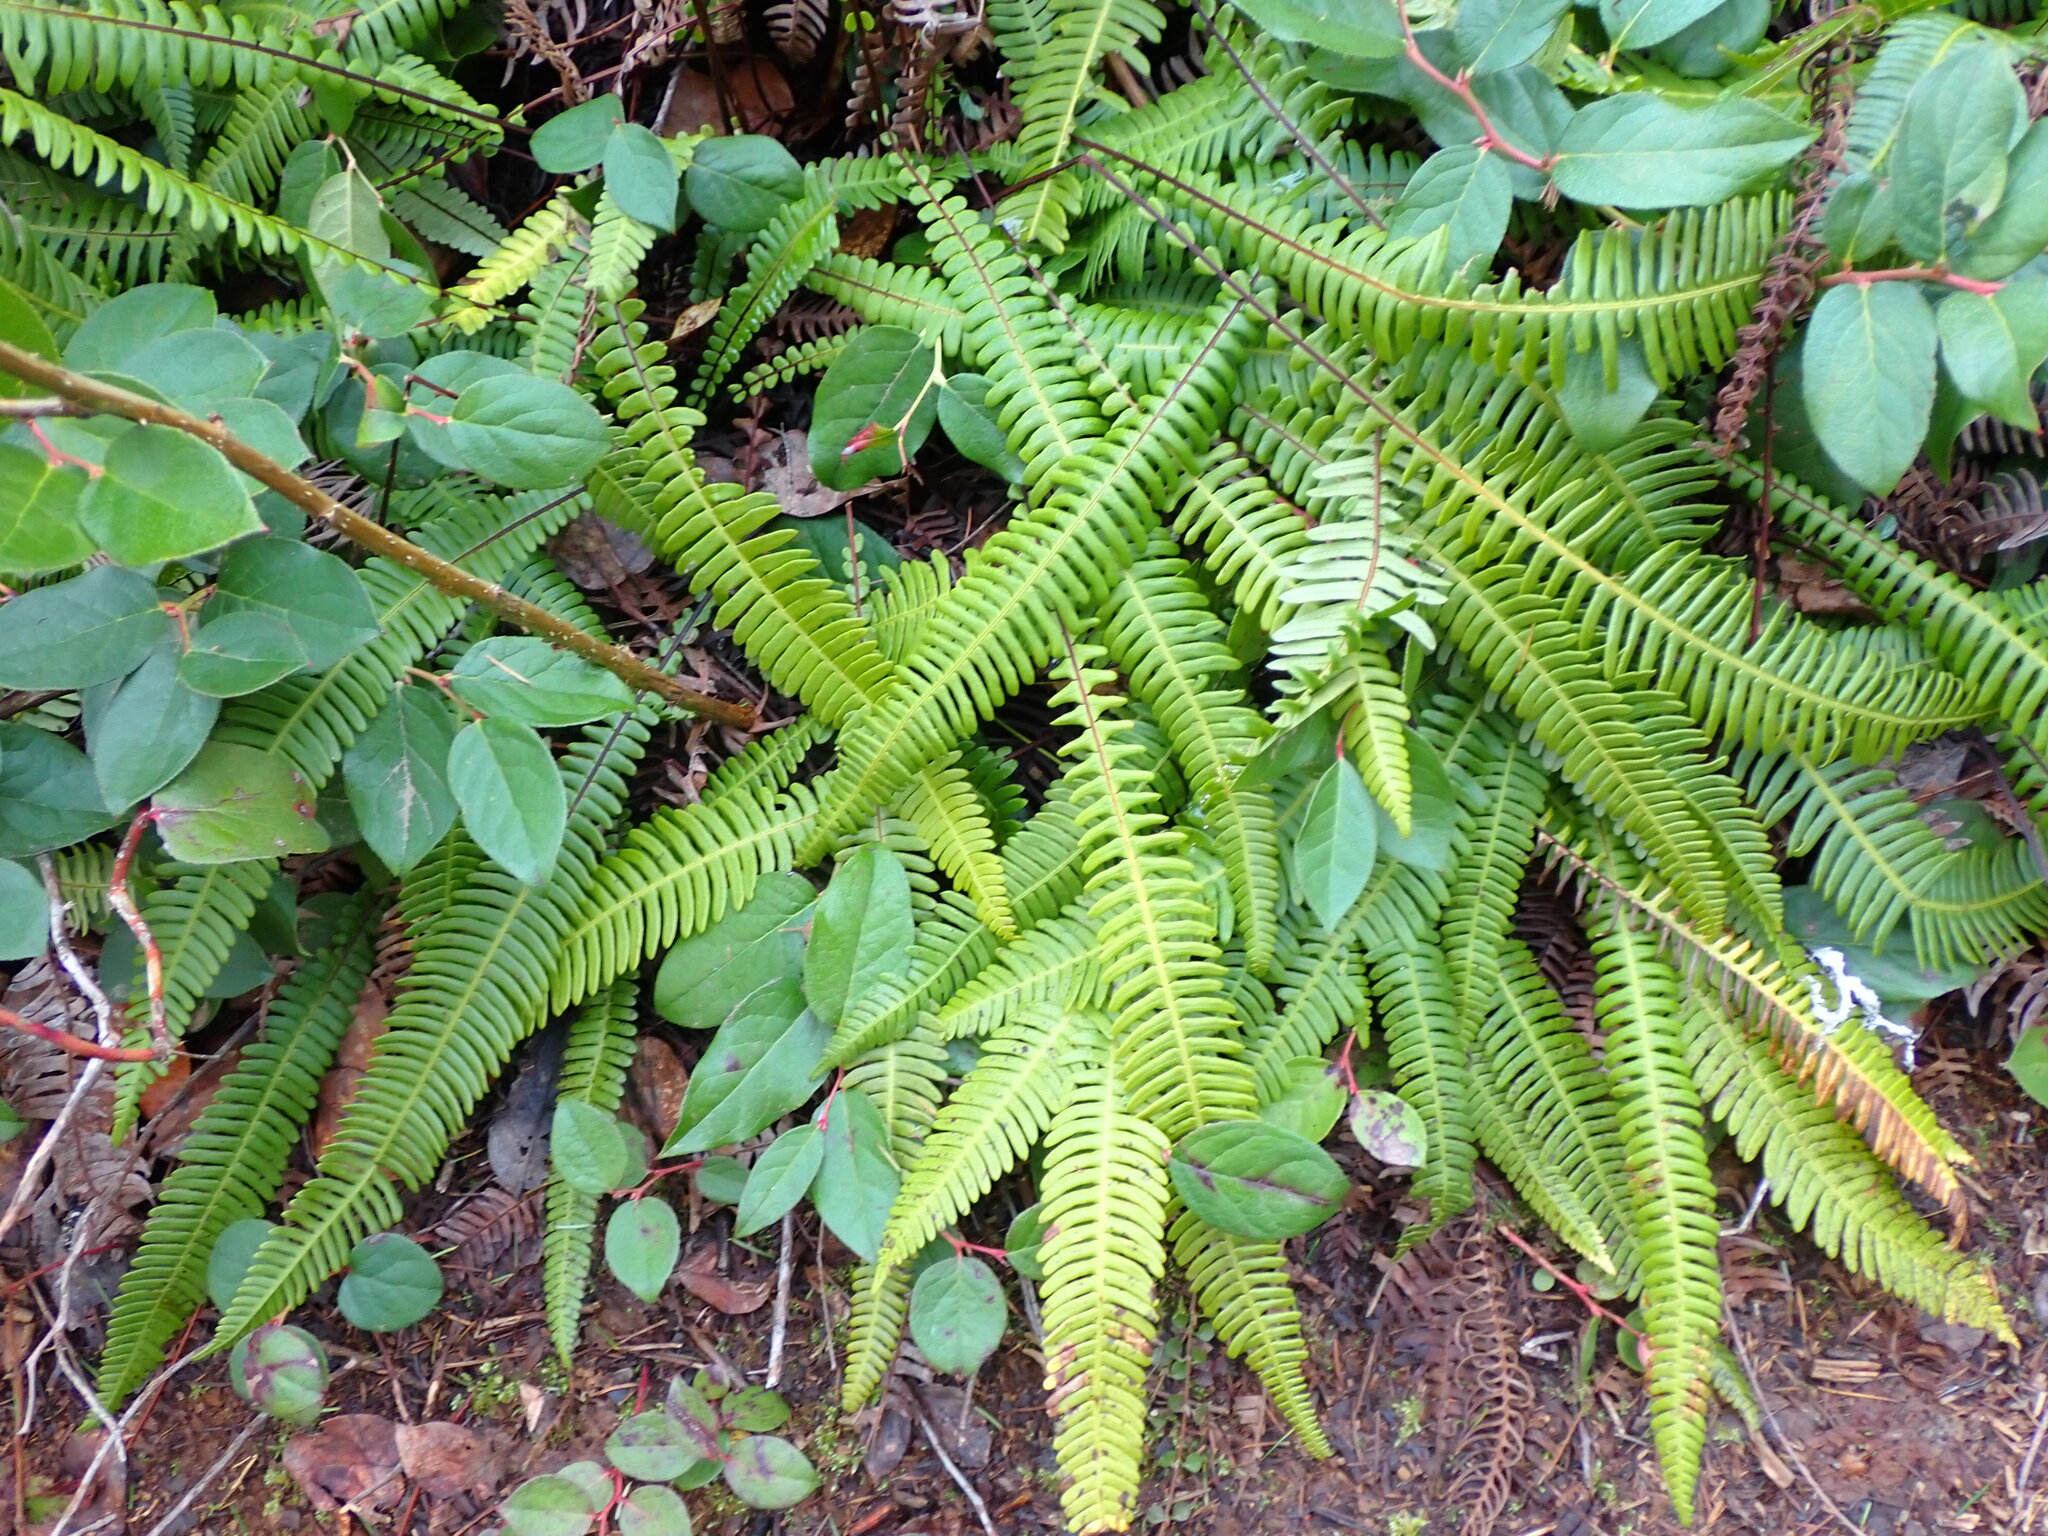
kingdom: Plantae
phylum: Tracheophyta
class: Polypodiopsida
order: Polypodiales
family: Blechnaceae
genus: Struthiopteris
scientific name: Struthiopteris spicant
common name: Deer fern
